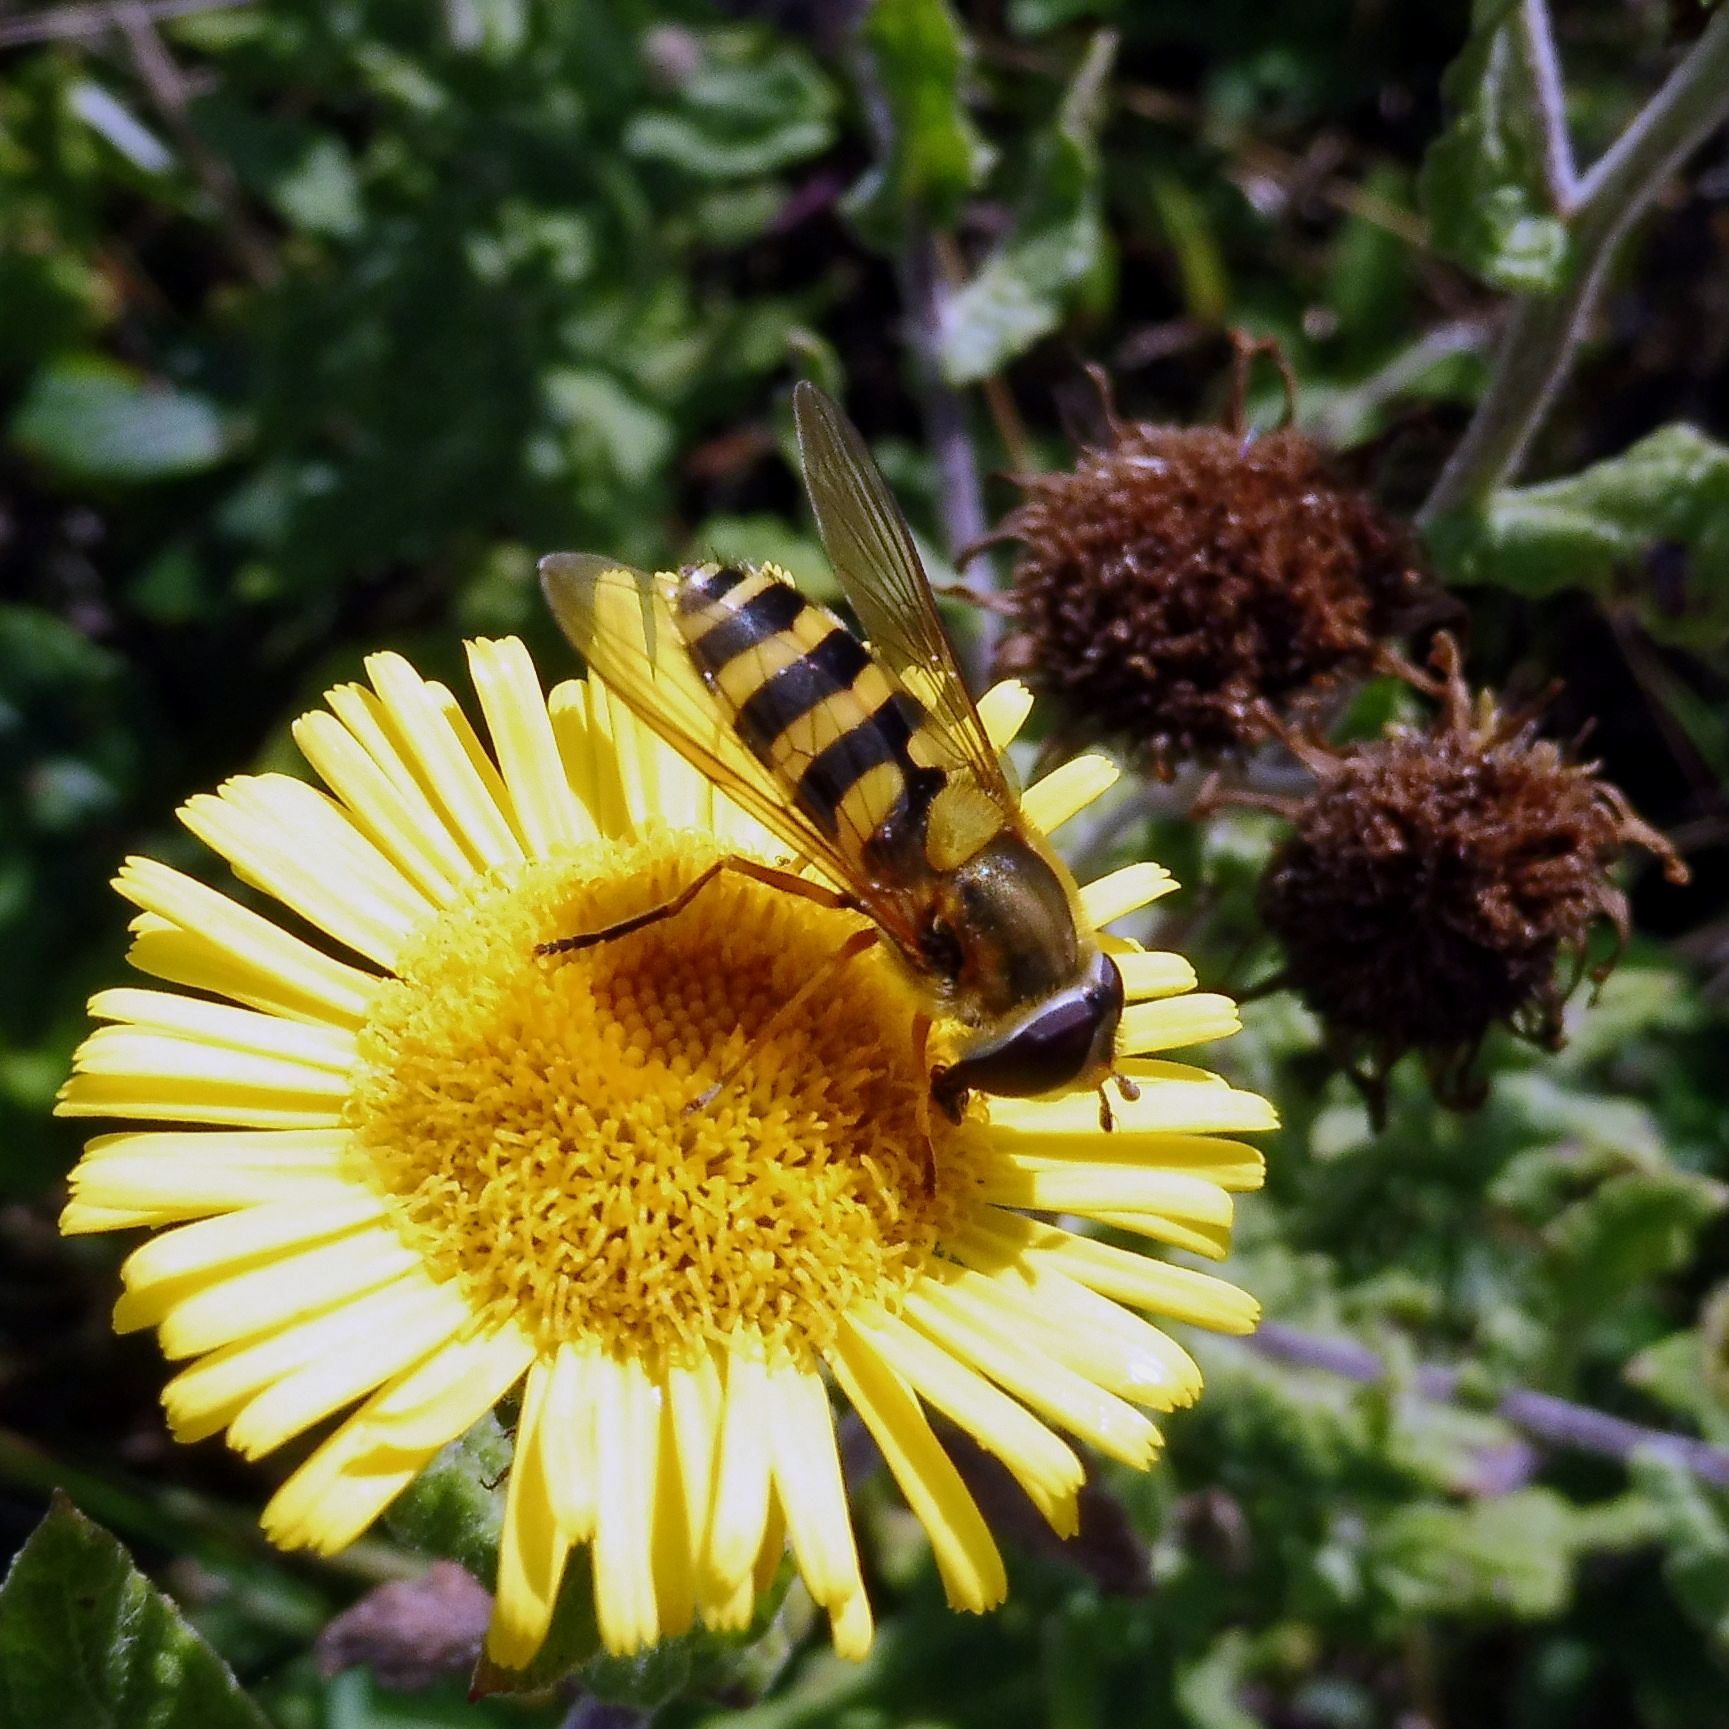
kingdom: Animalia
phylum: Arthropoda
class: Insecta
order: Diptera
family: Syrphidae
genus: Syrphus
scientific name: Syrphus ribesii
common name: Common flower fly
